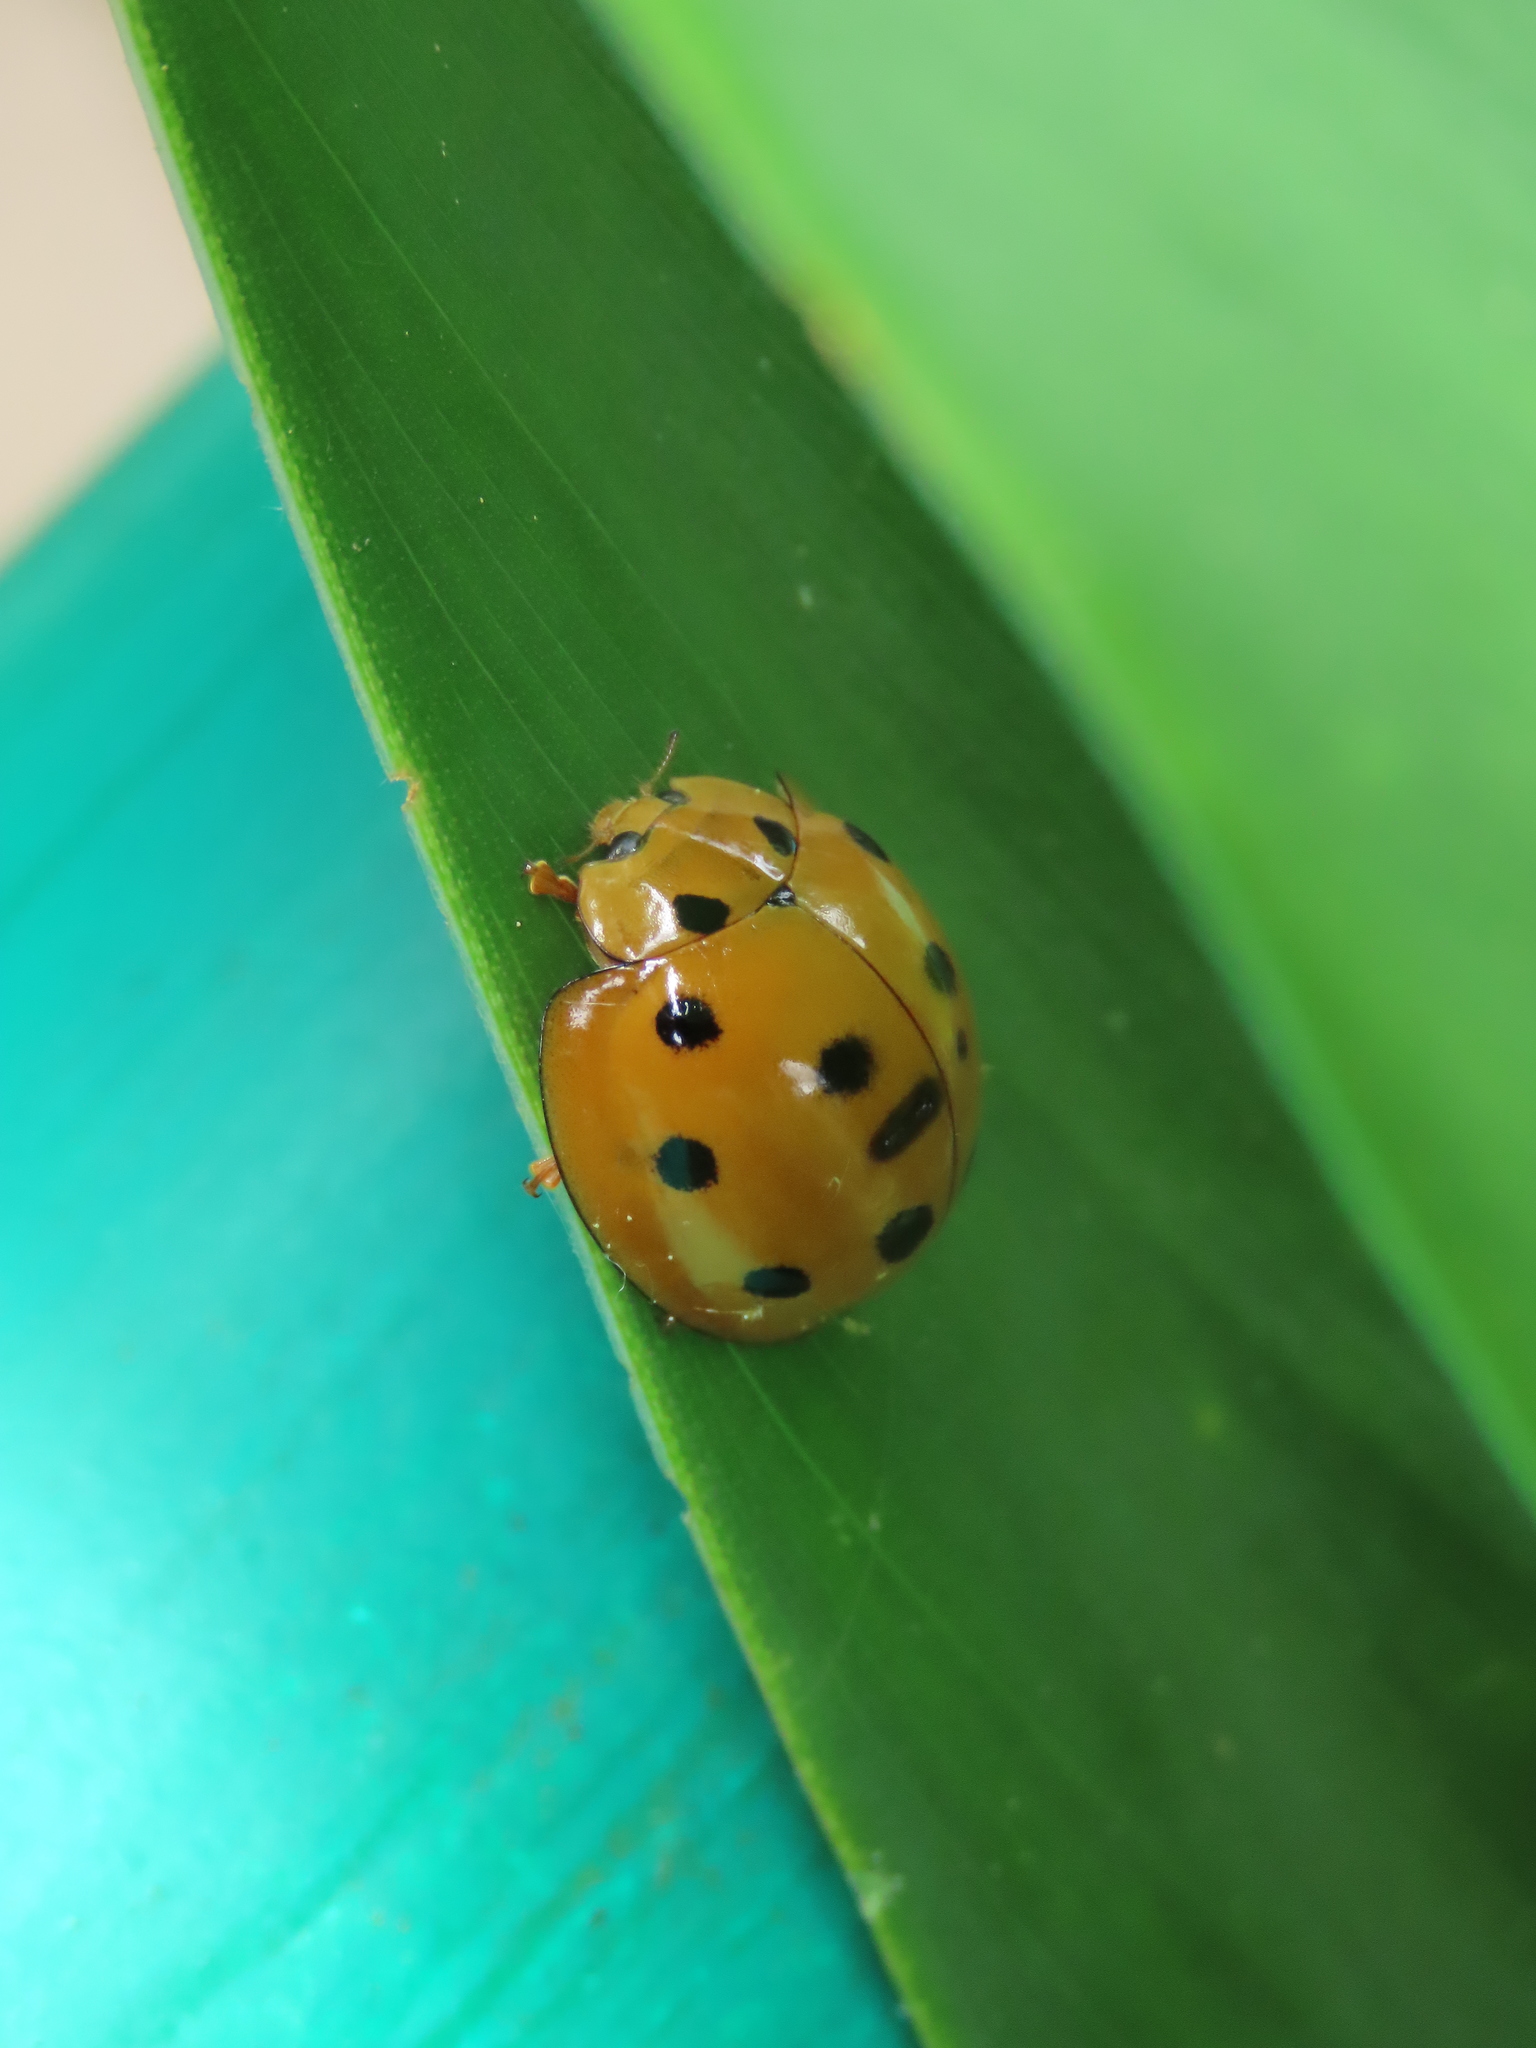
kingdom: Animalia
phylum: Arthropoda
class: Insecta
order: Coleoptera
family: Coccinellidae
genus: Megalocaria
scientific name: Megalocaria dilatata
